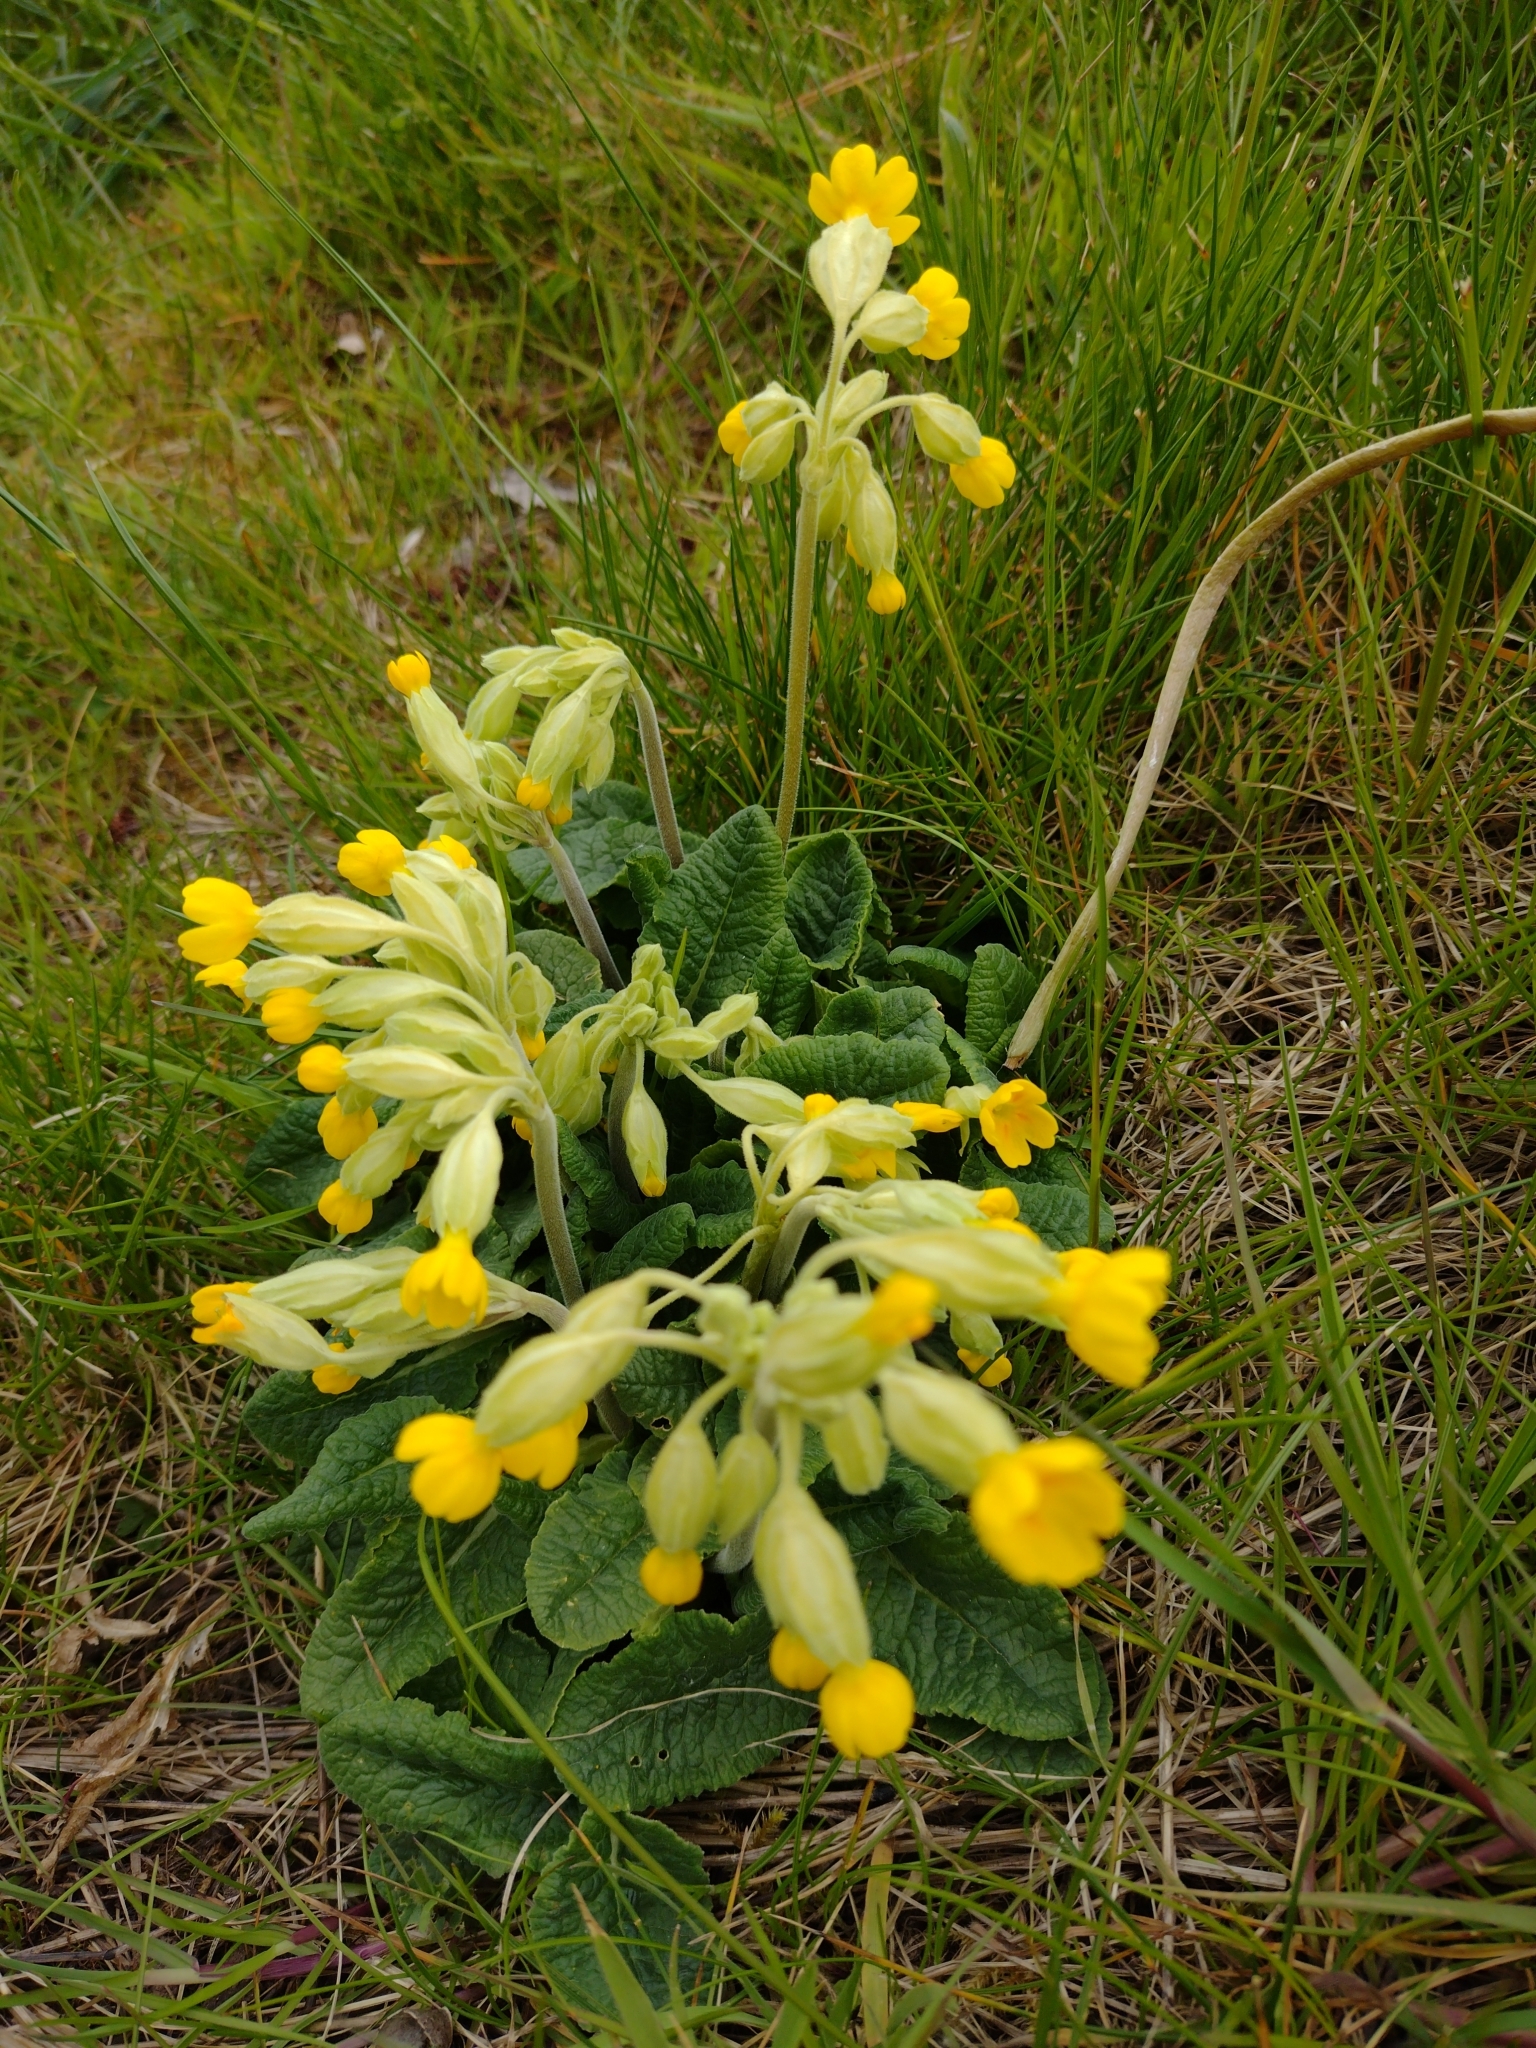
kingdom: Plantae
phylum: Tracheophyta
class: Magnoliopsida
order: Ericales
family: Primulaceae
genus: Primula
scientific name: Primula veris
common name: Cowslip
